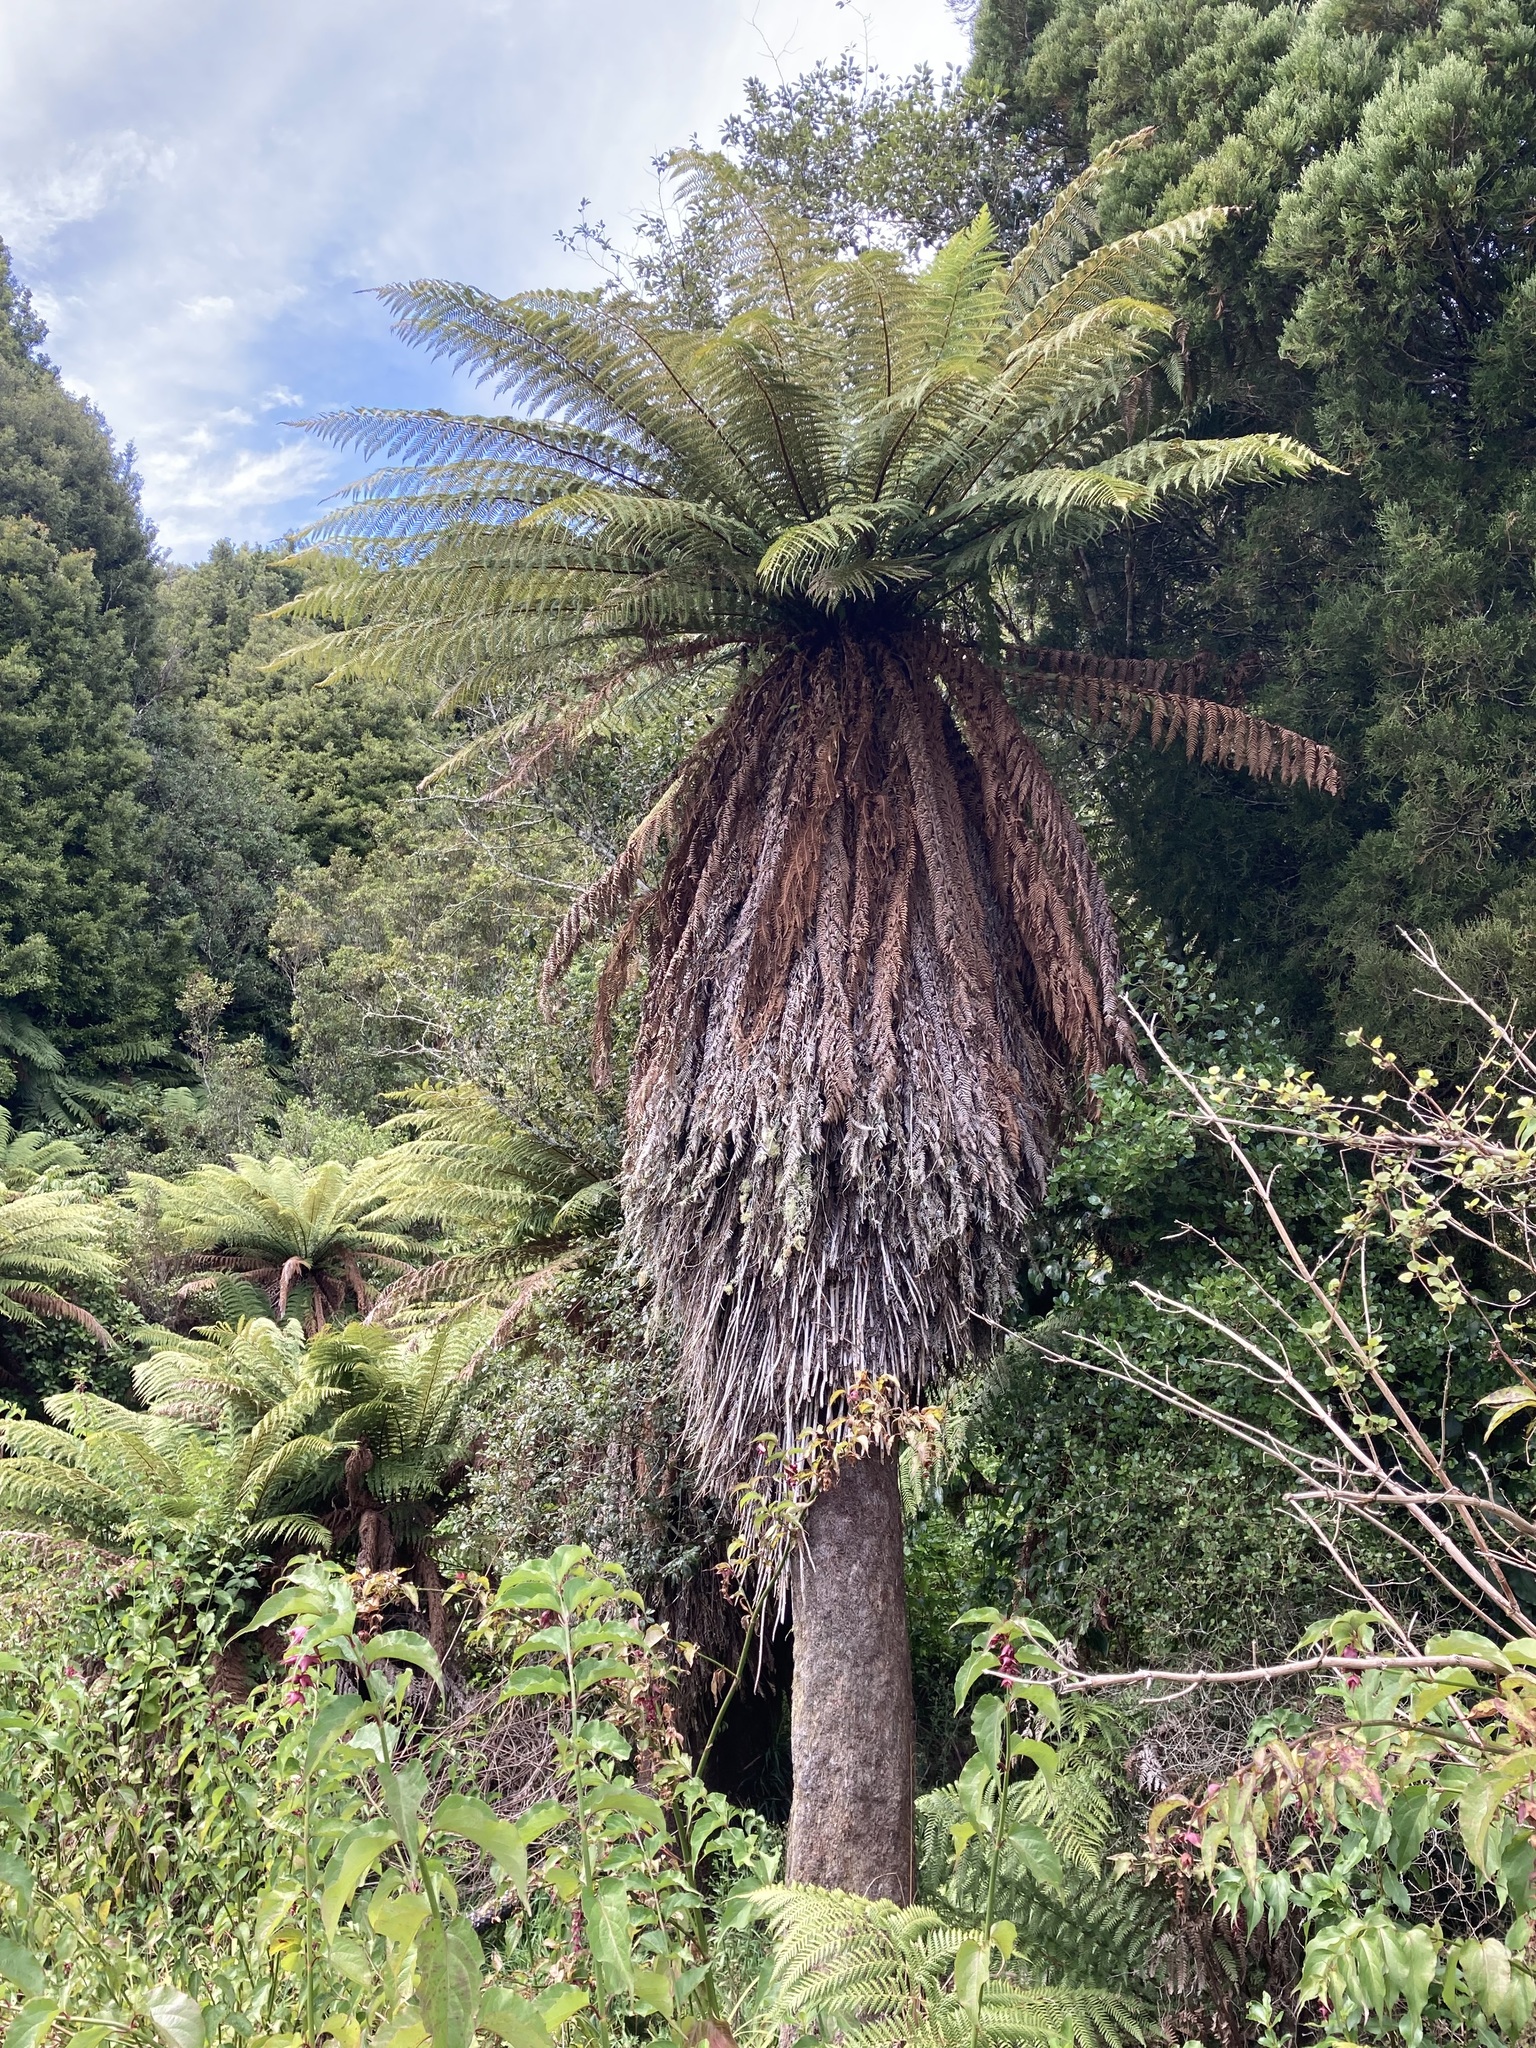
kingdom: Plantae
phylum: Tracheophyta
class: Polypodiopsida
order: Cyatheales
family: Dicksoniaceae
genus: Dicksonia
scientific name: Dicksonia fibrosa
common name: Golden tree fern
